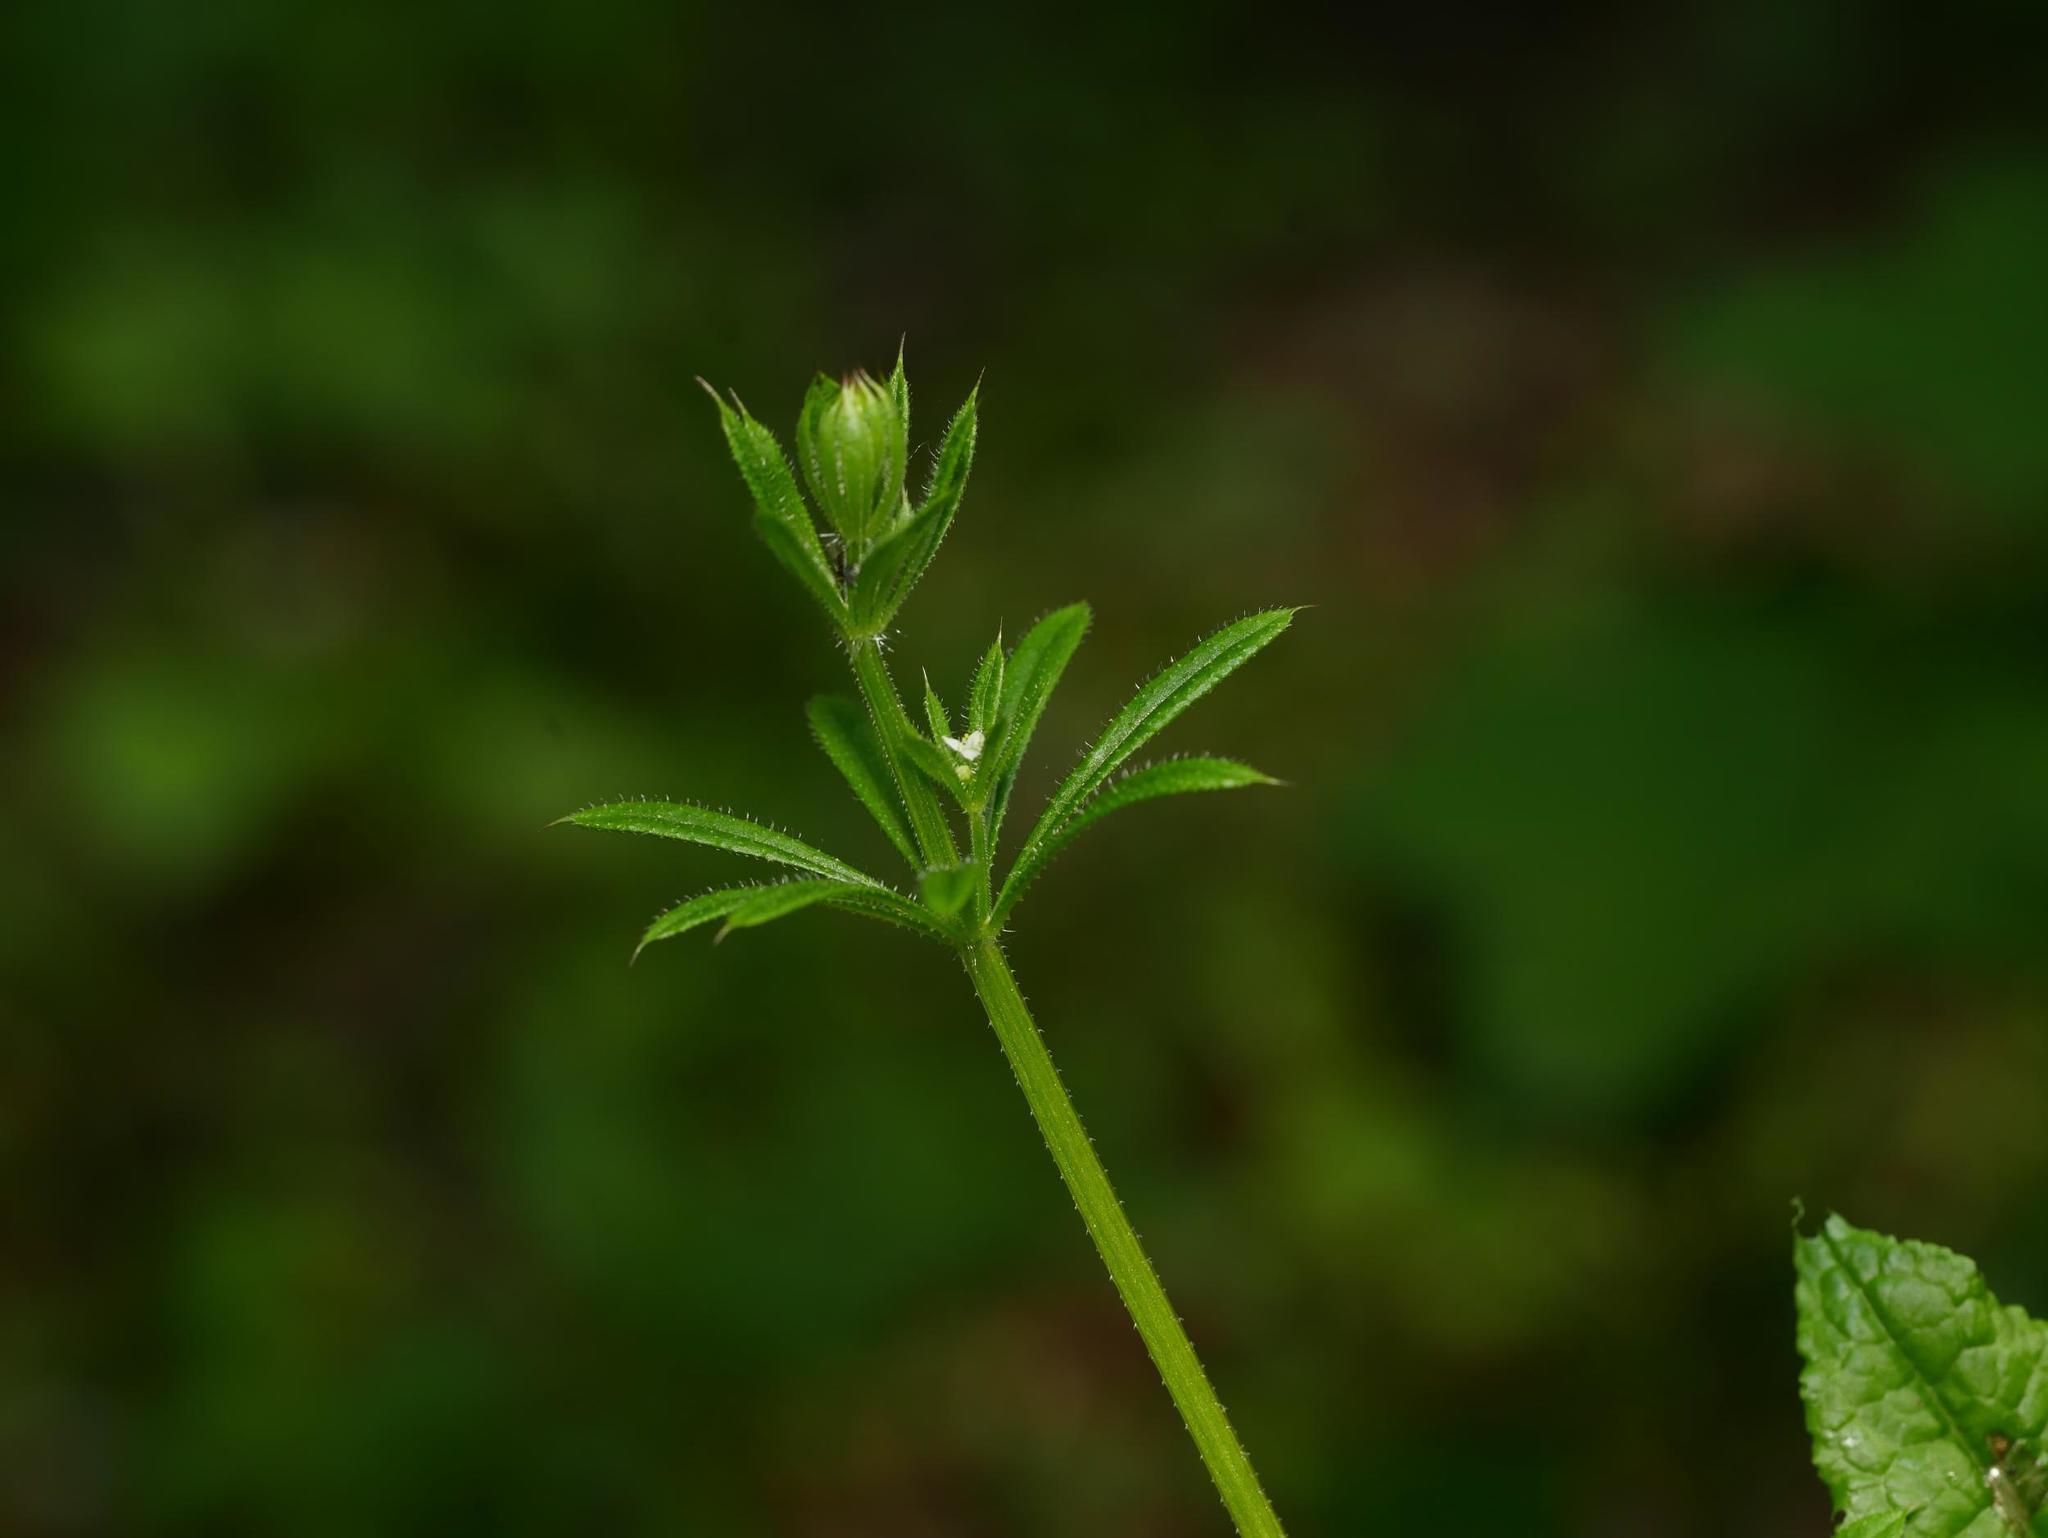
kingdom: Plantae
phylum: Tracheophyta
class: Magnoliopsida
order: Gentianales
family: Rubiaceae
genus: Galium
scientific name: Galium aparine
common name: Cleavers
